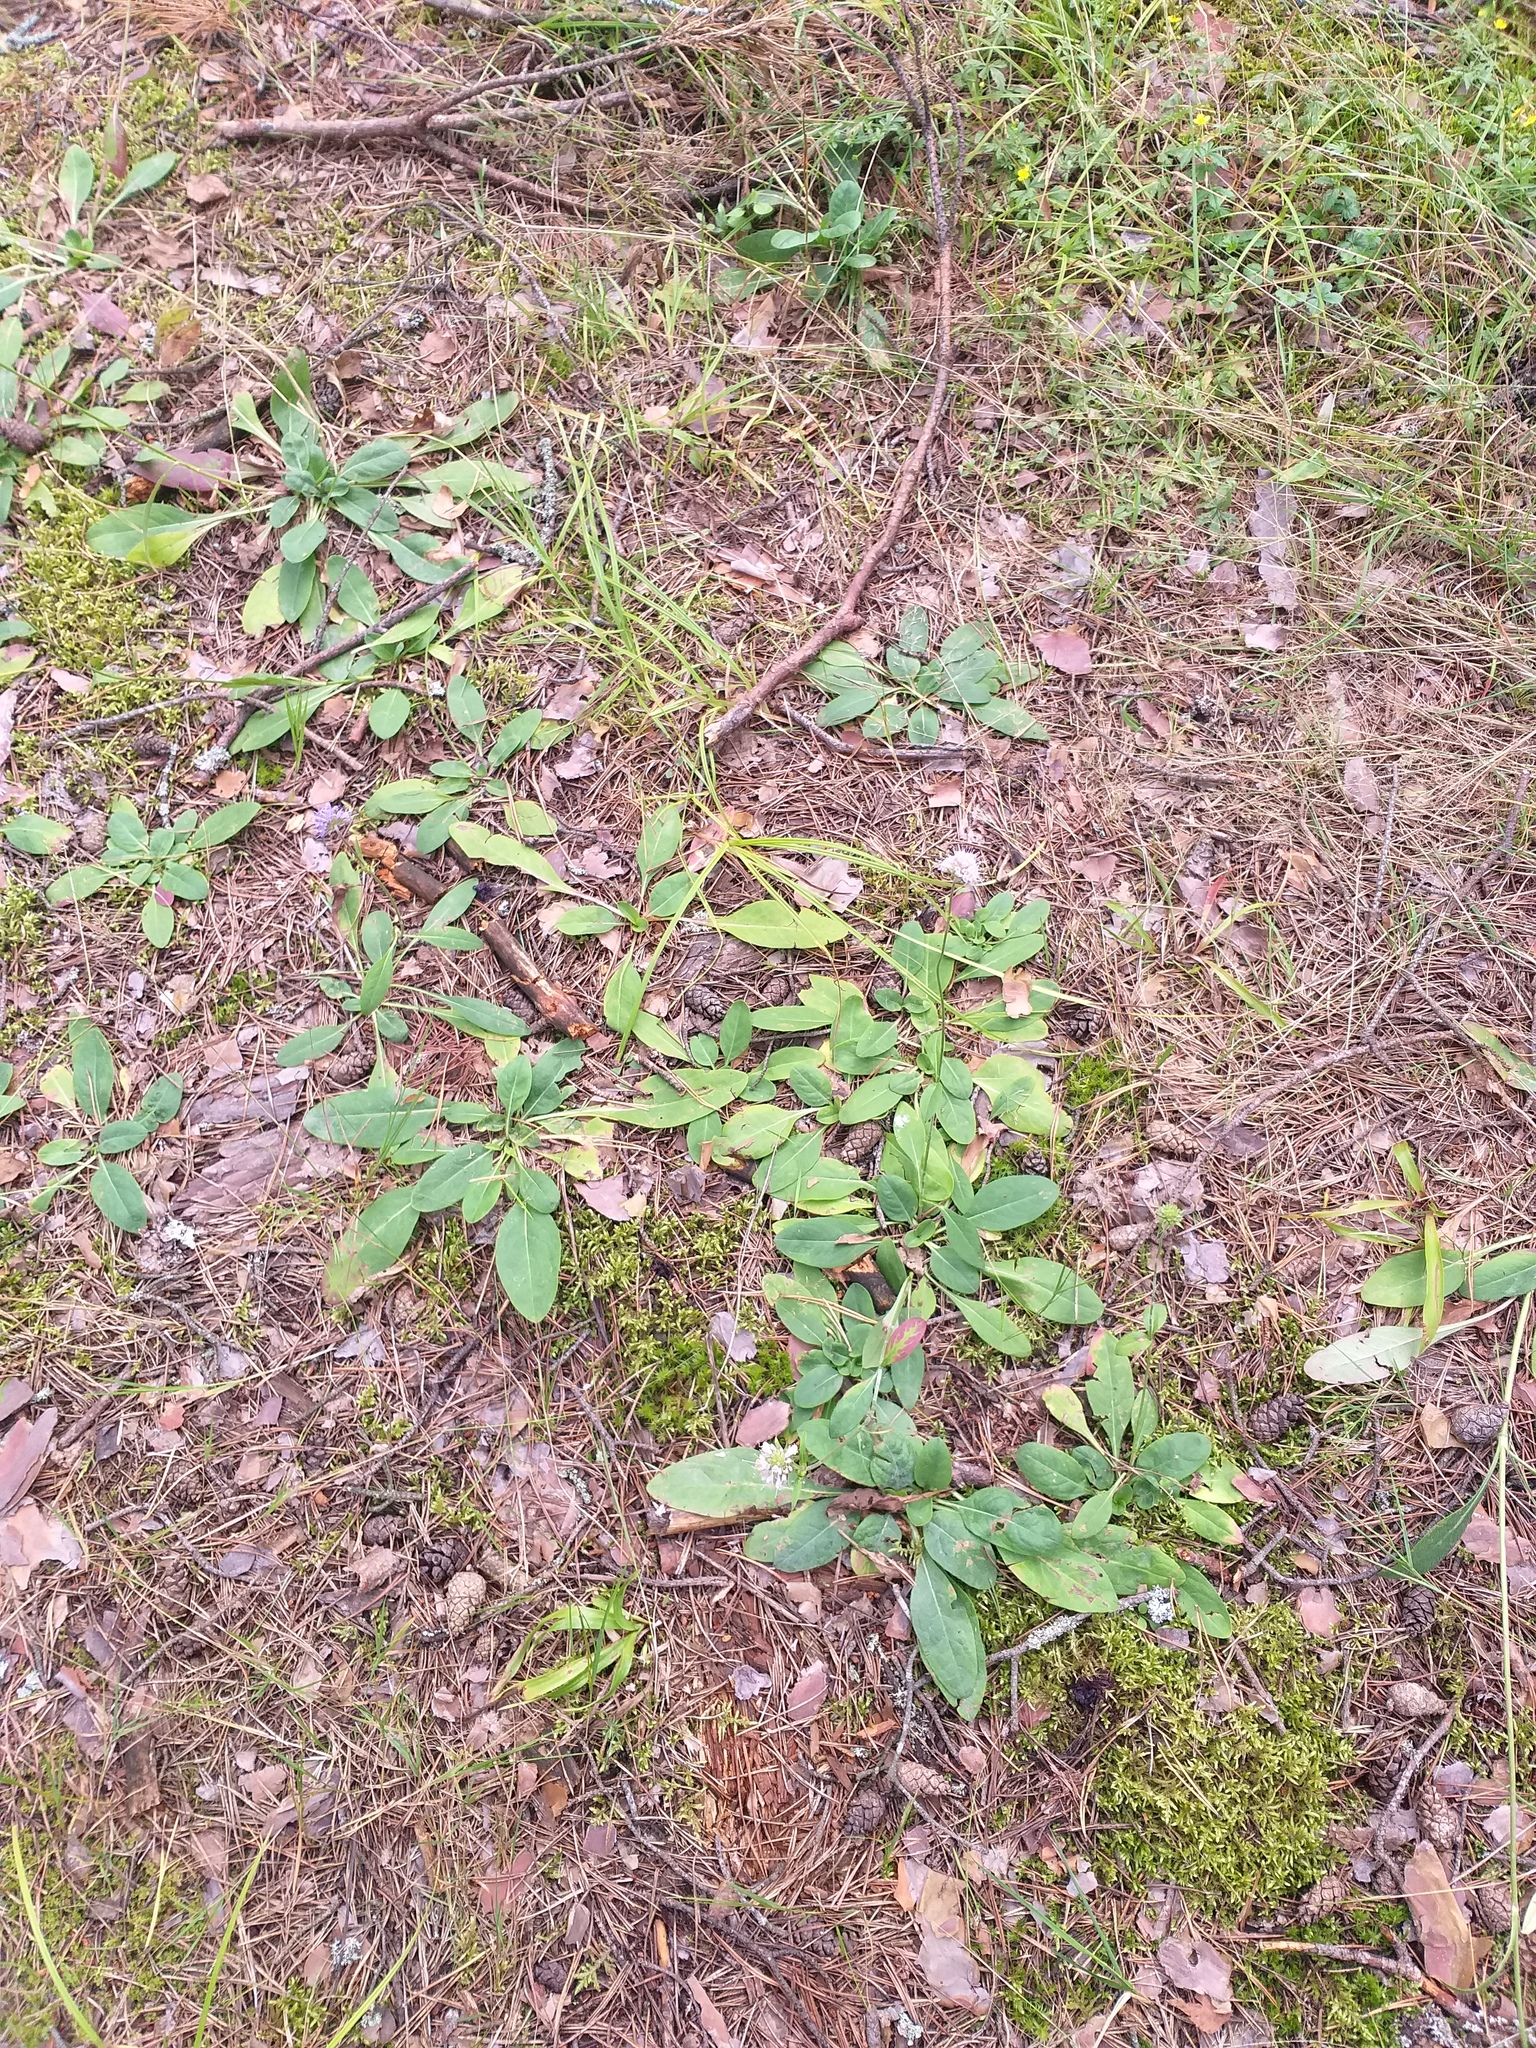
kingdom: Plantae
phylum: Tracheophyta
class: Magnoliopsida
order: Dipsacales
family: Caprifoliaceae
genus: Succisa
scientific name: Succisa pratensis
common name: Devil's-bit
